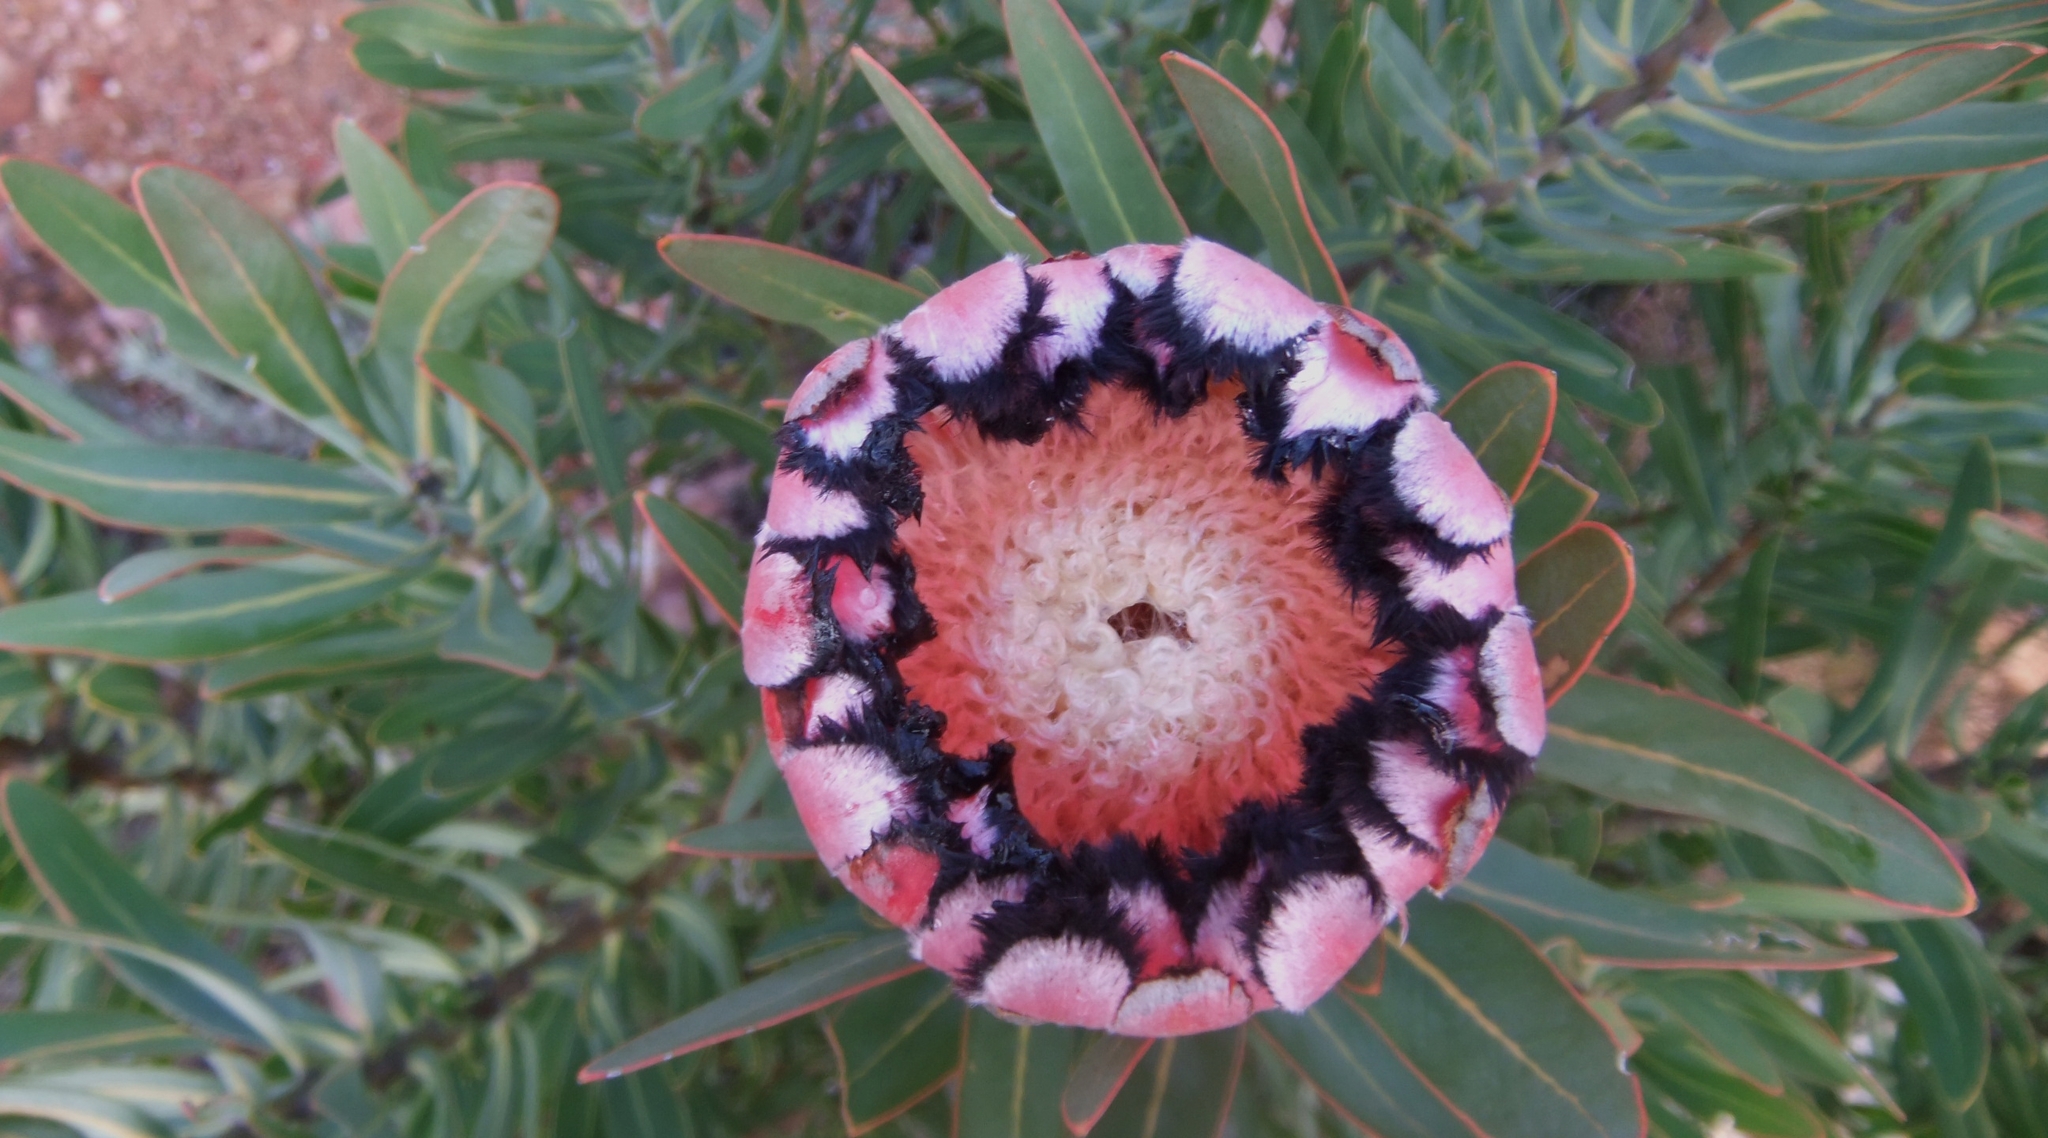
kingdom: Plantae
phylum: Tracheophyta
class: Magnoliopsida
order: Proteales
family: Proteaceae
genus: Protea
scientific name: Protea neriifolia
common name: Blue sugarbush
